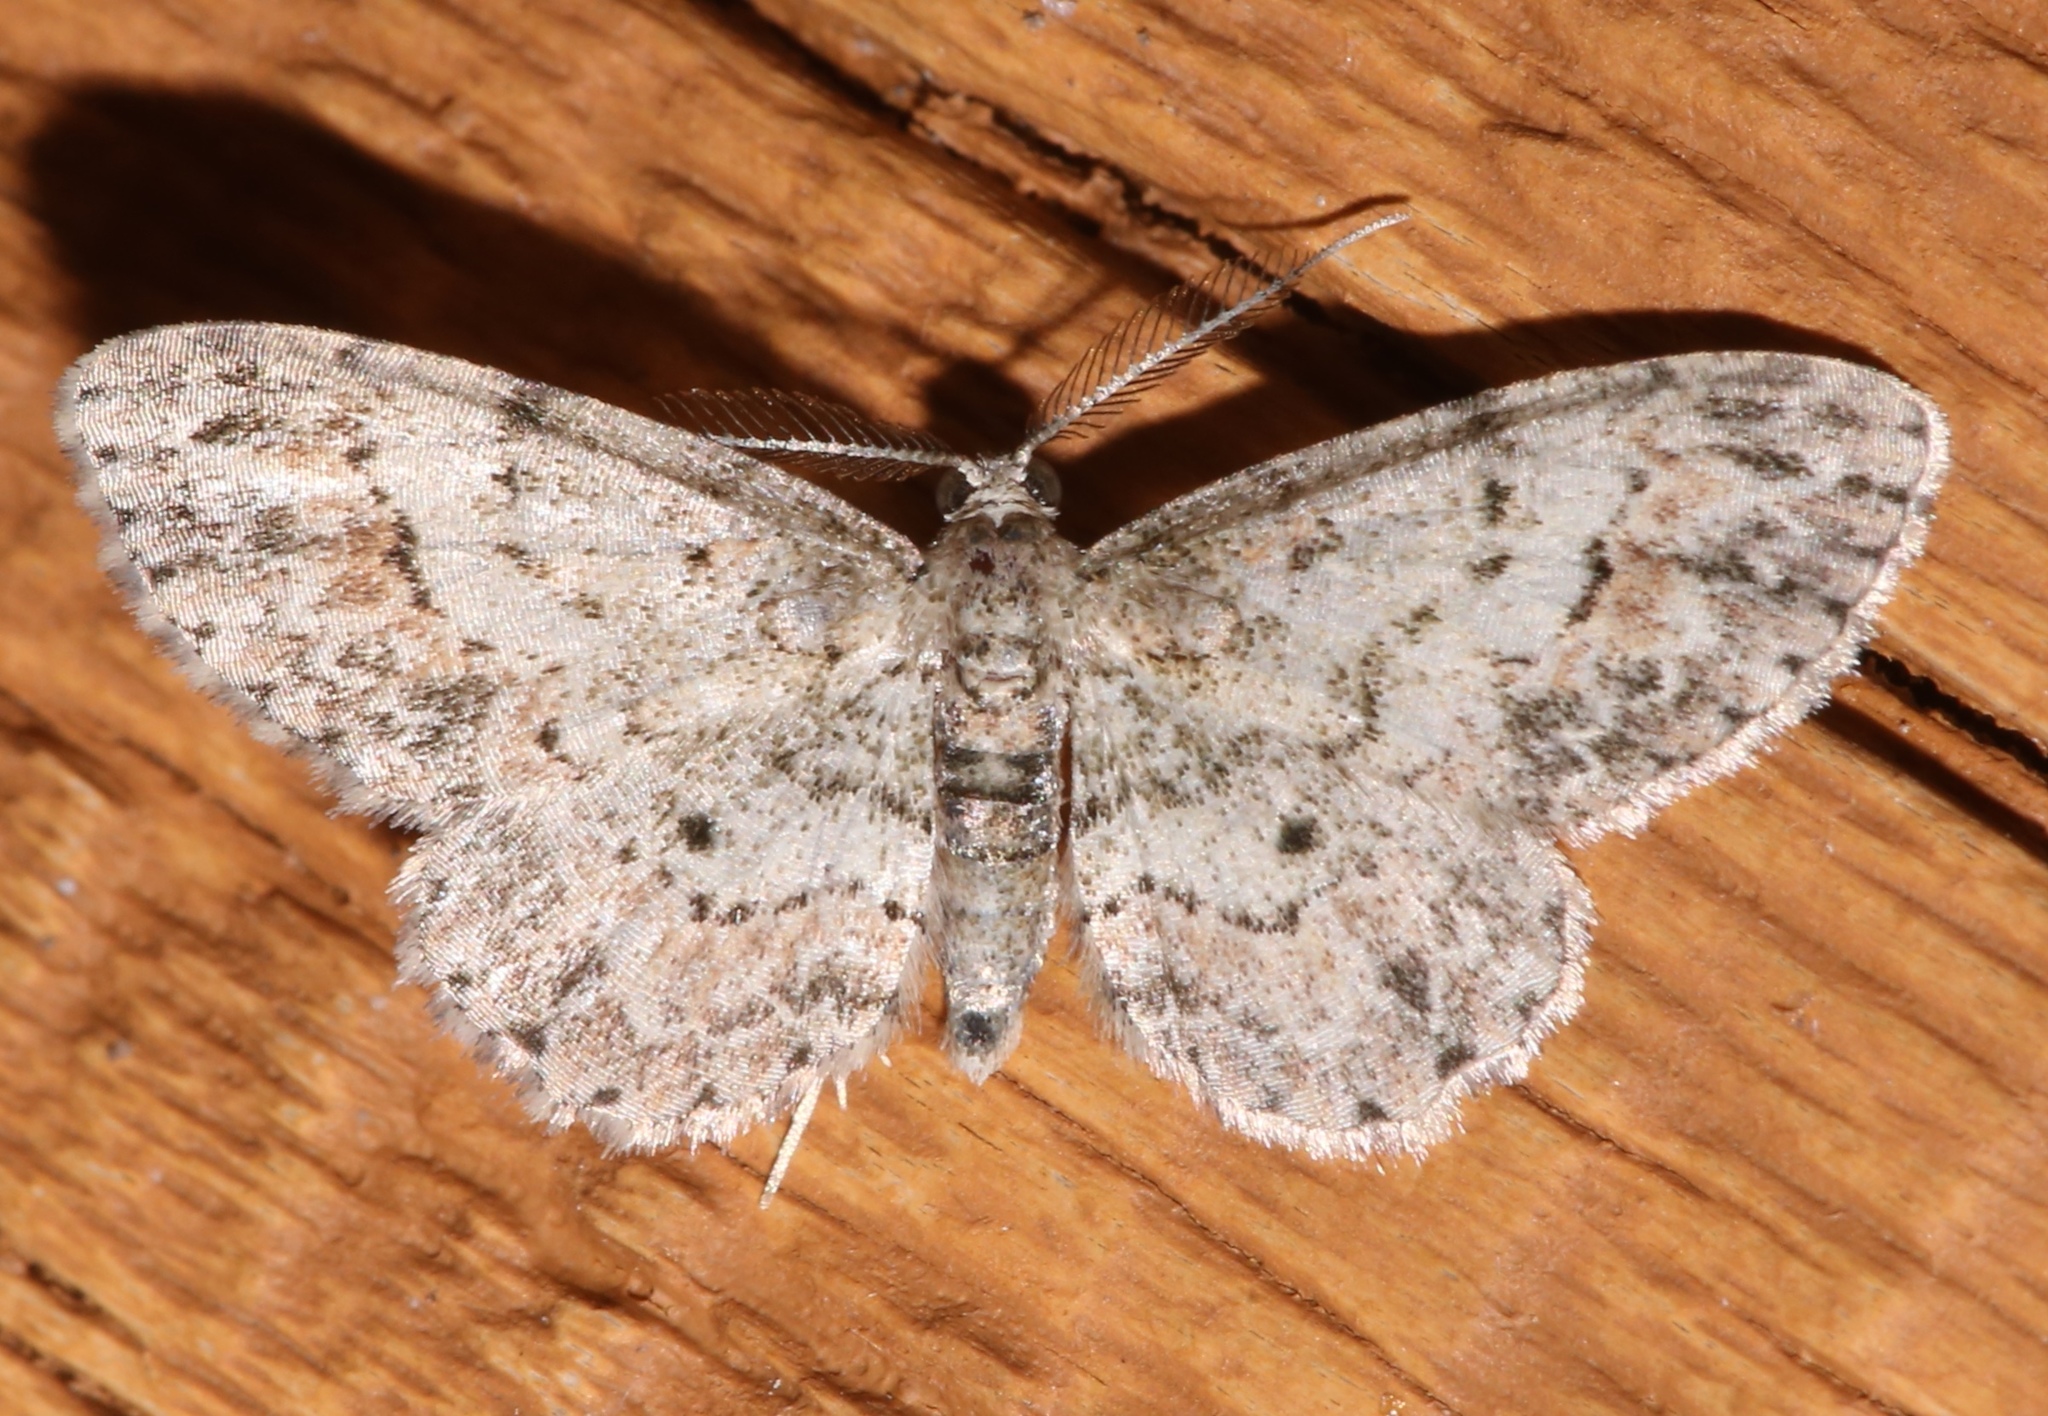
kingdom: Animalia
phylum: Arthropoda
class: Insecta
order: Lepidoptera
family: Geometridae
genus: Glenoides
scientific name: Glenoides texanaria
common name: Texas gray
